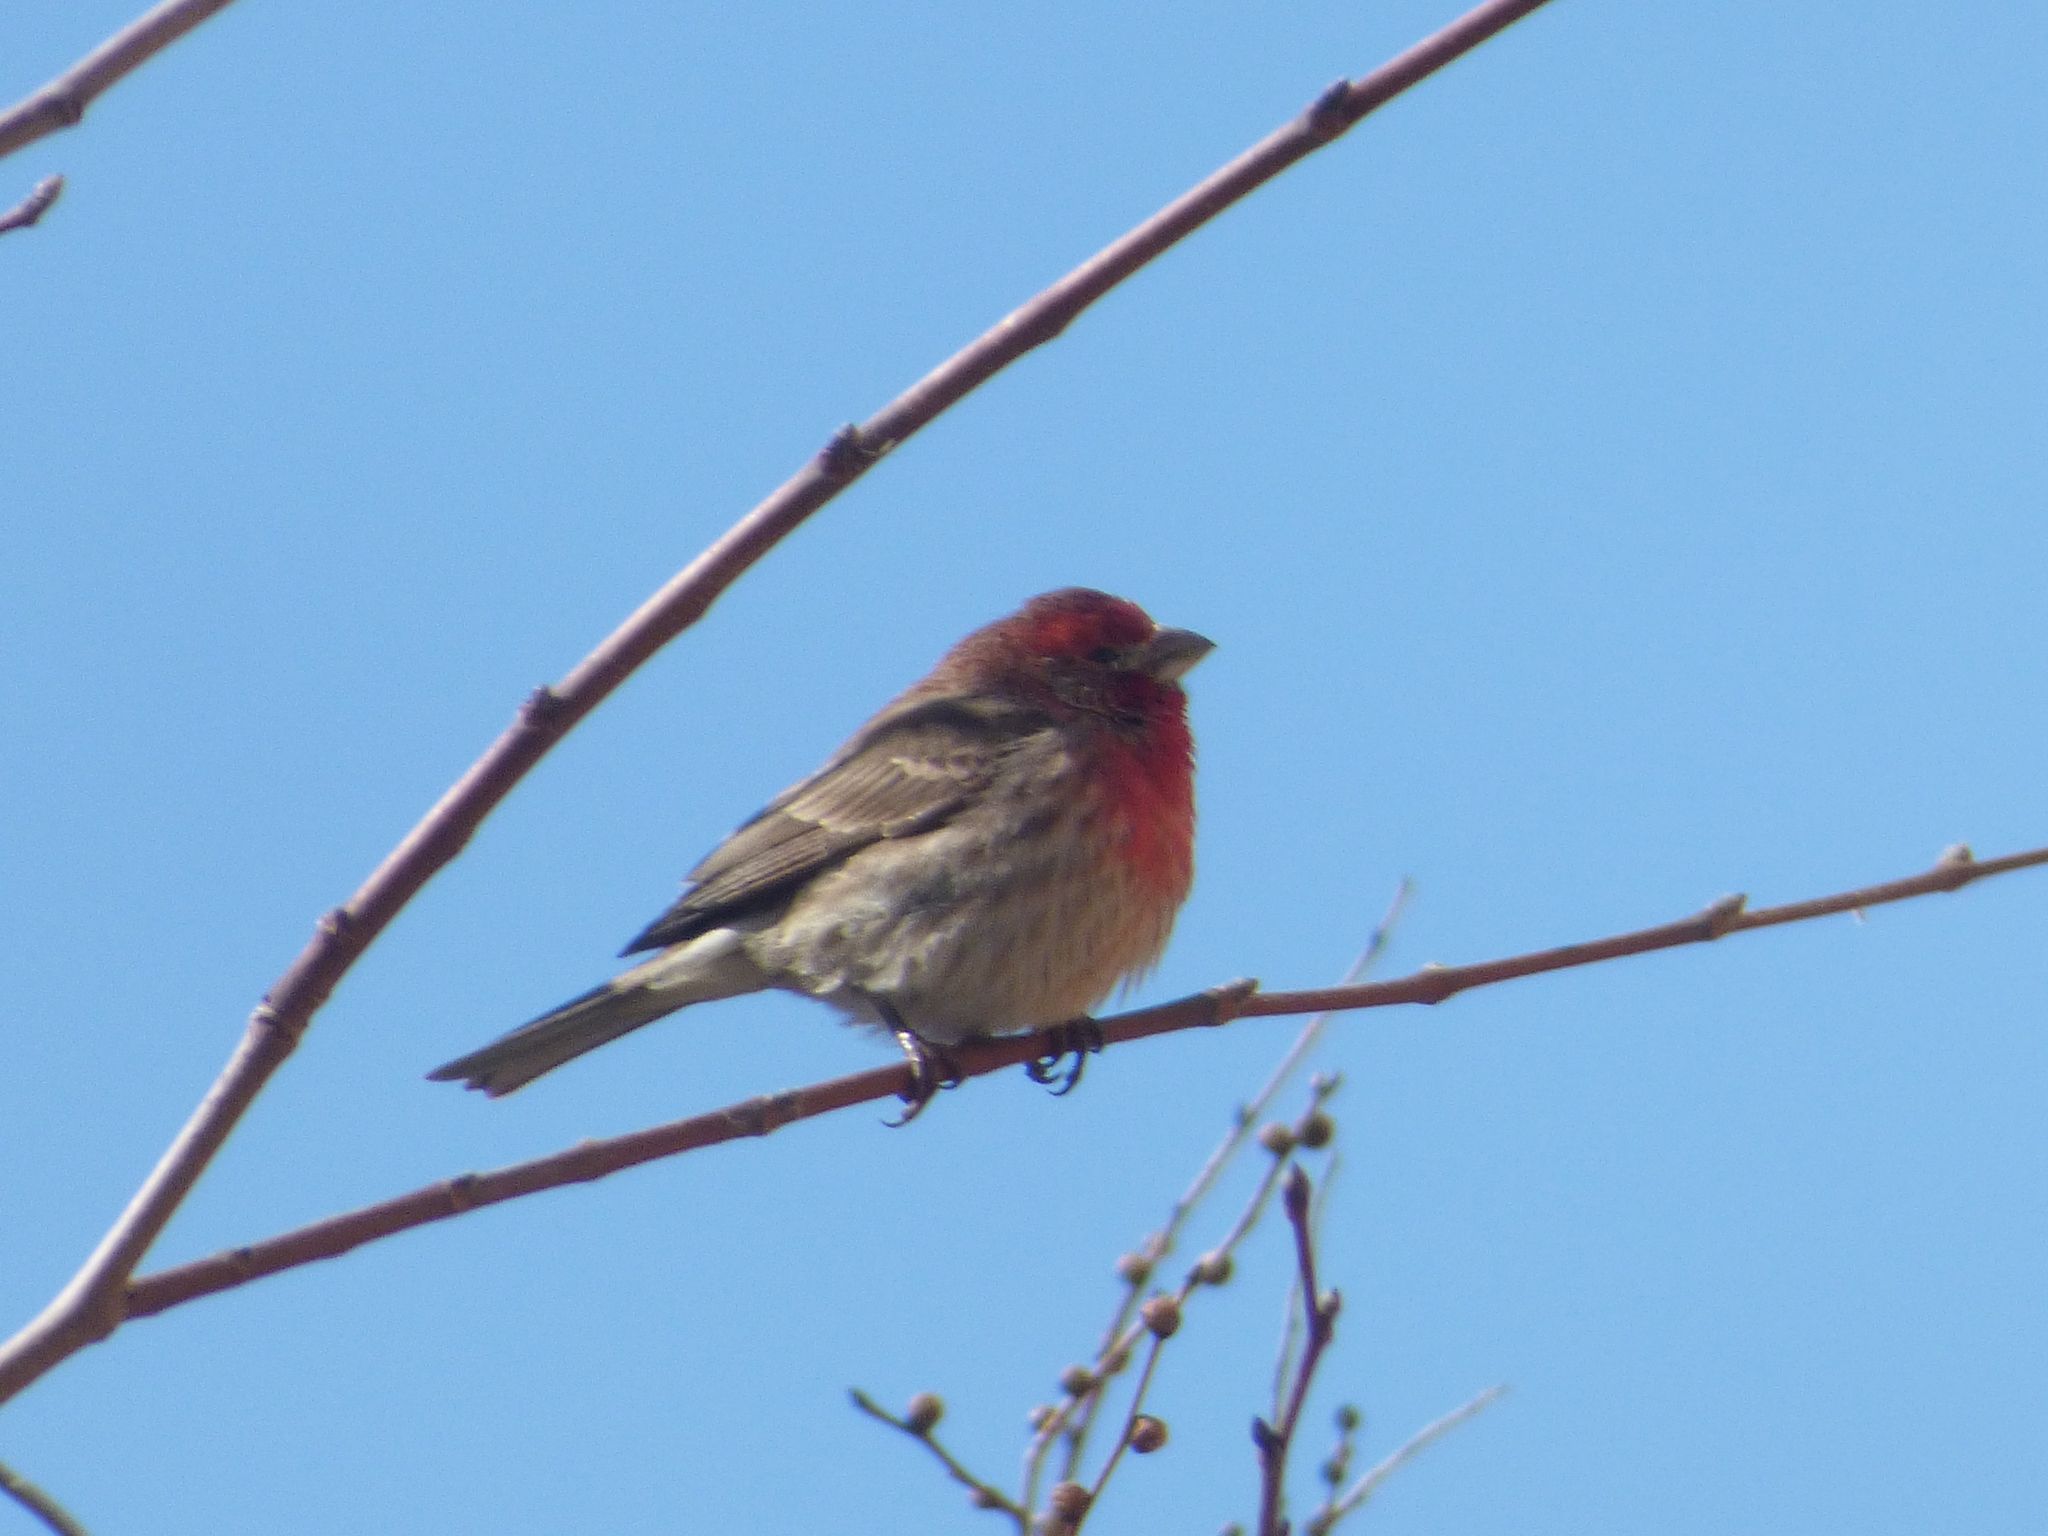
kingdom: Animalia
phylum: Chordata
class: Aves
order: Passeriformes
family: Fringillidae
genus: Haemorhous
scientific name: Haemorhous mexicanus
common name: House finch
